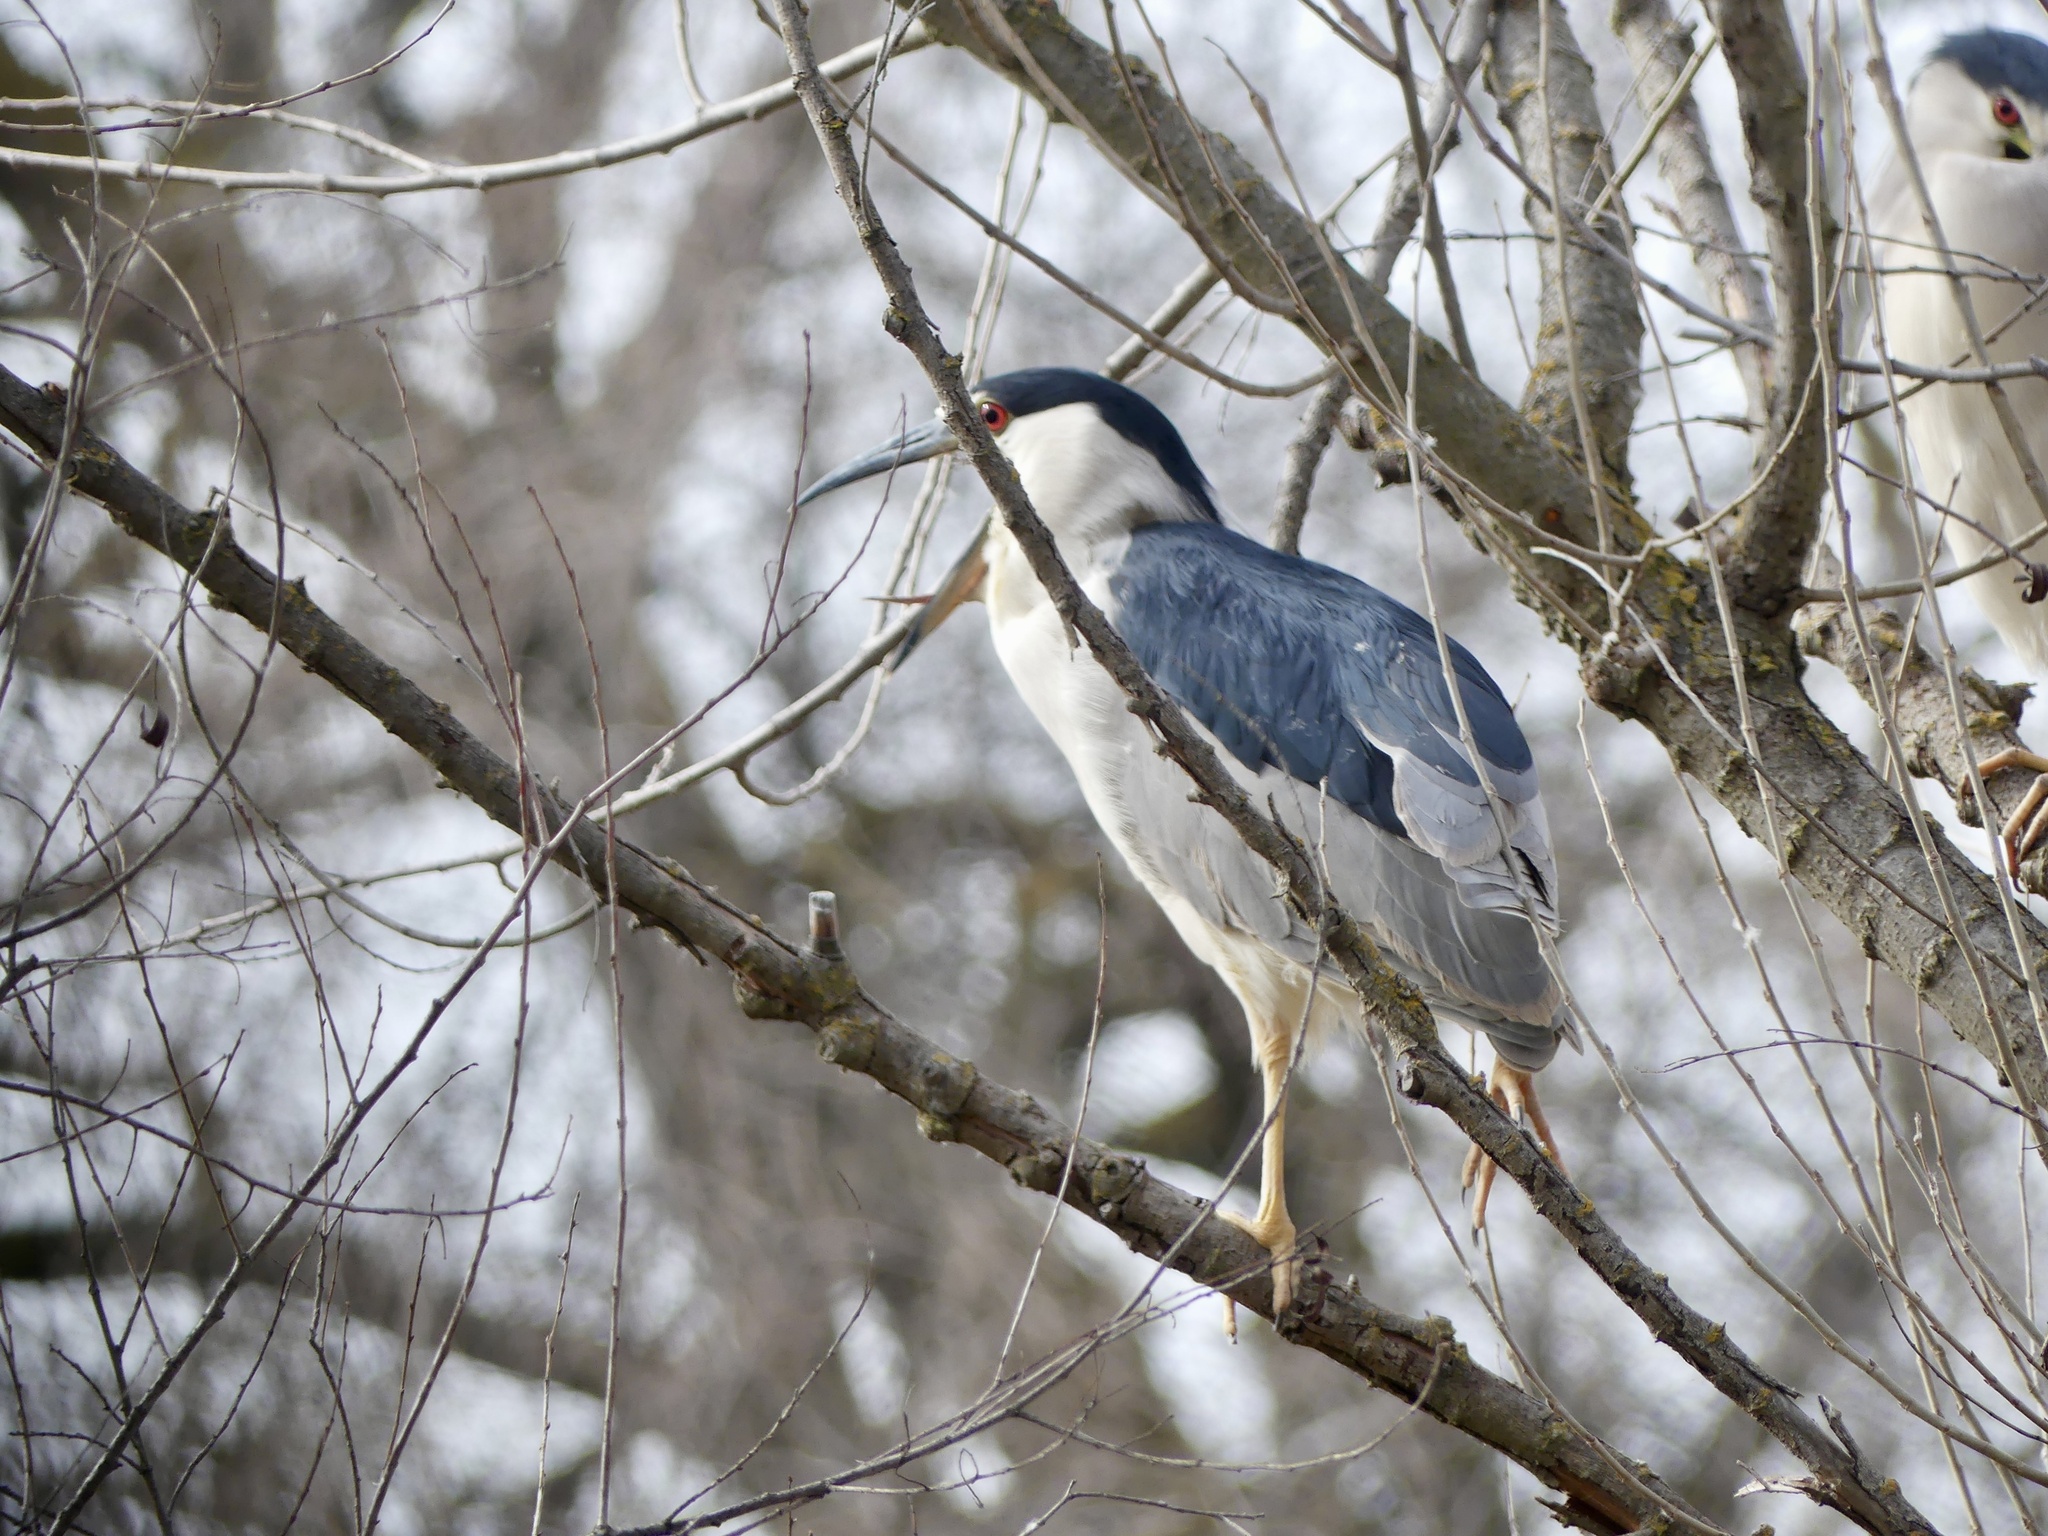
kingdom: Animalia
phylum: Chordata
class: Aves
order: Pelecaniformes
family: Ardeidae
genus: Nycticorax
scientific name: Nycticorax nycticorax
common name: Black-crowned night heron
